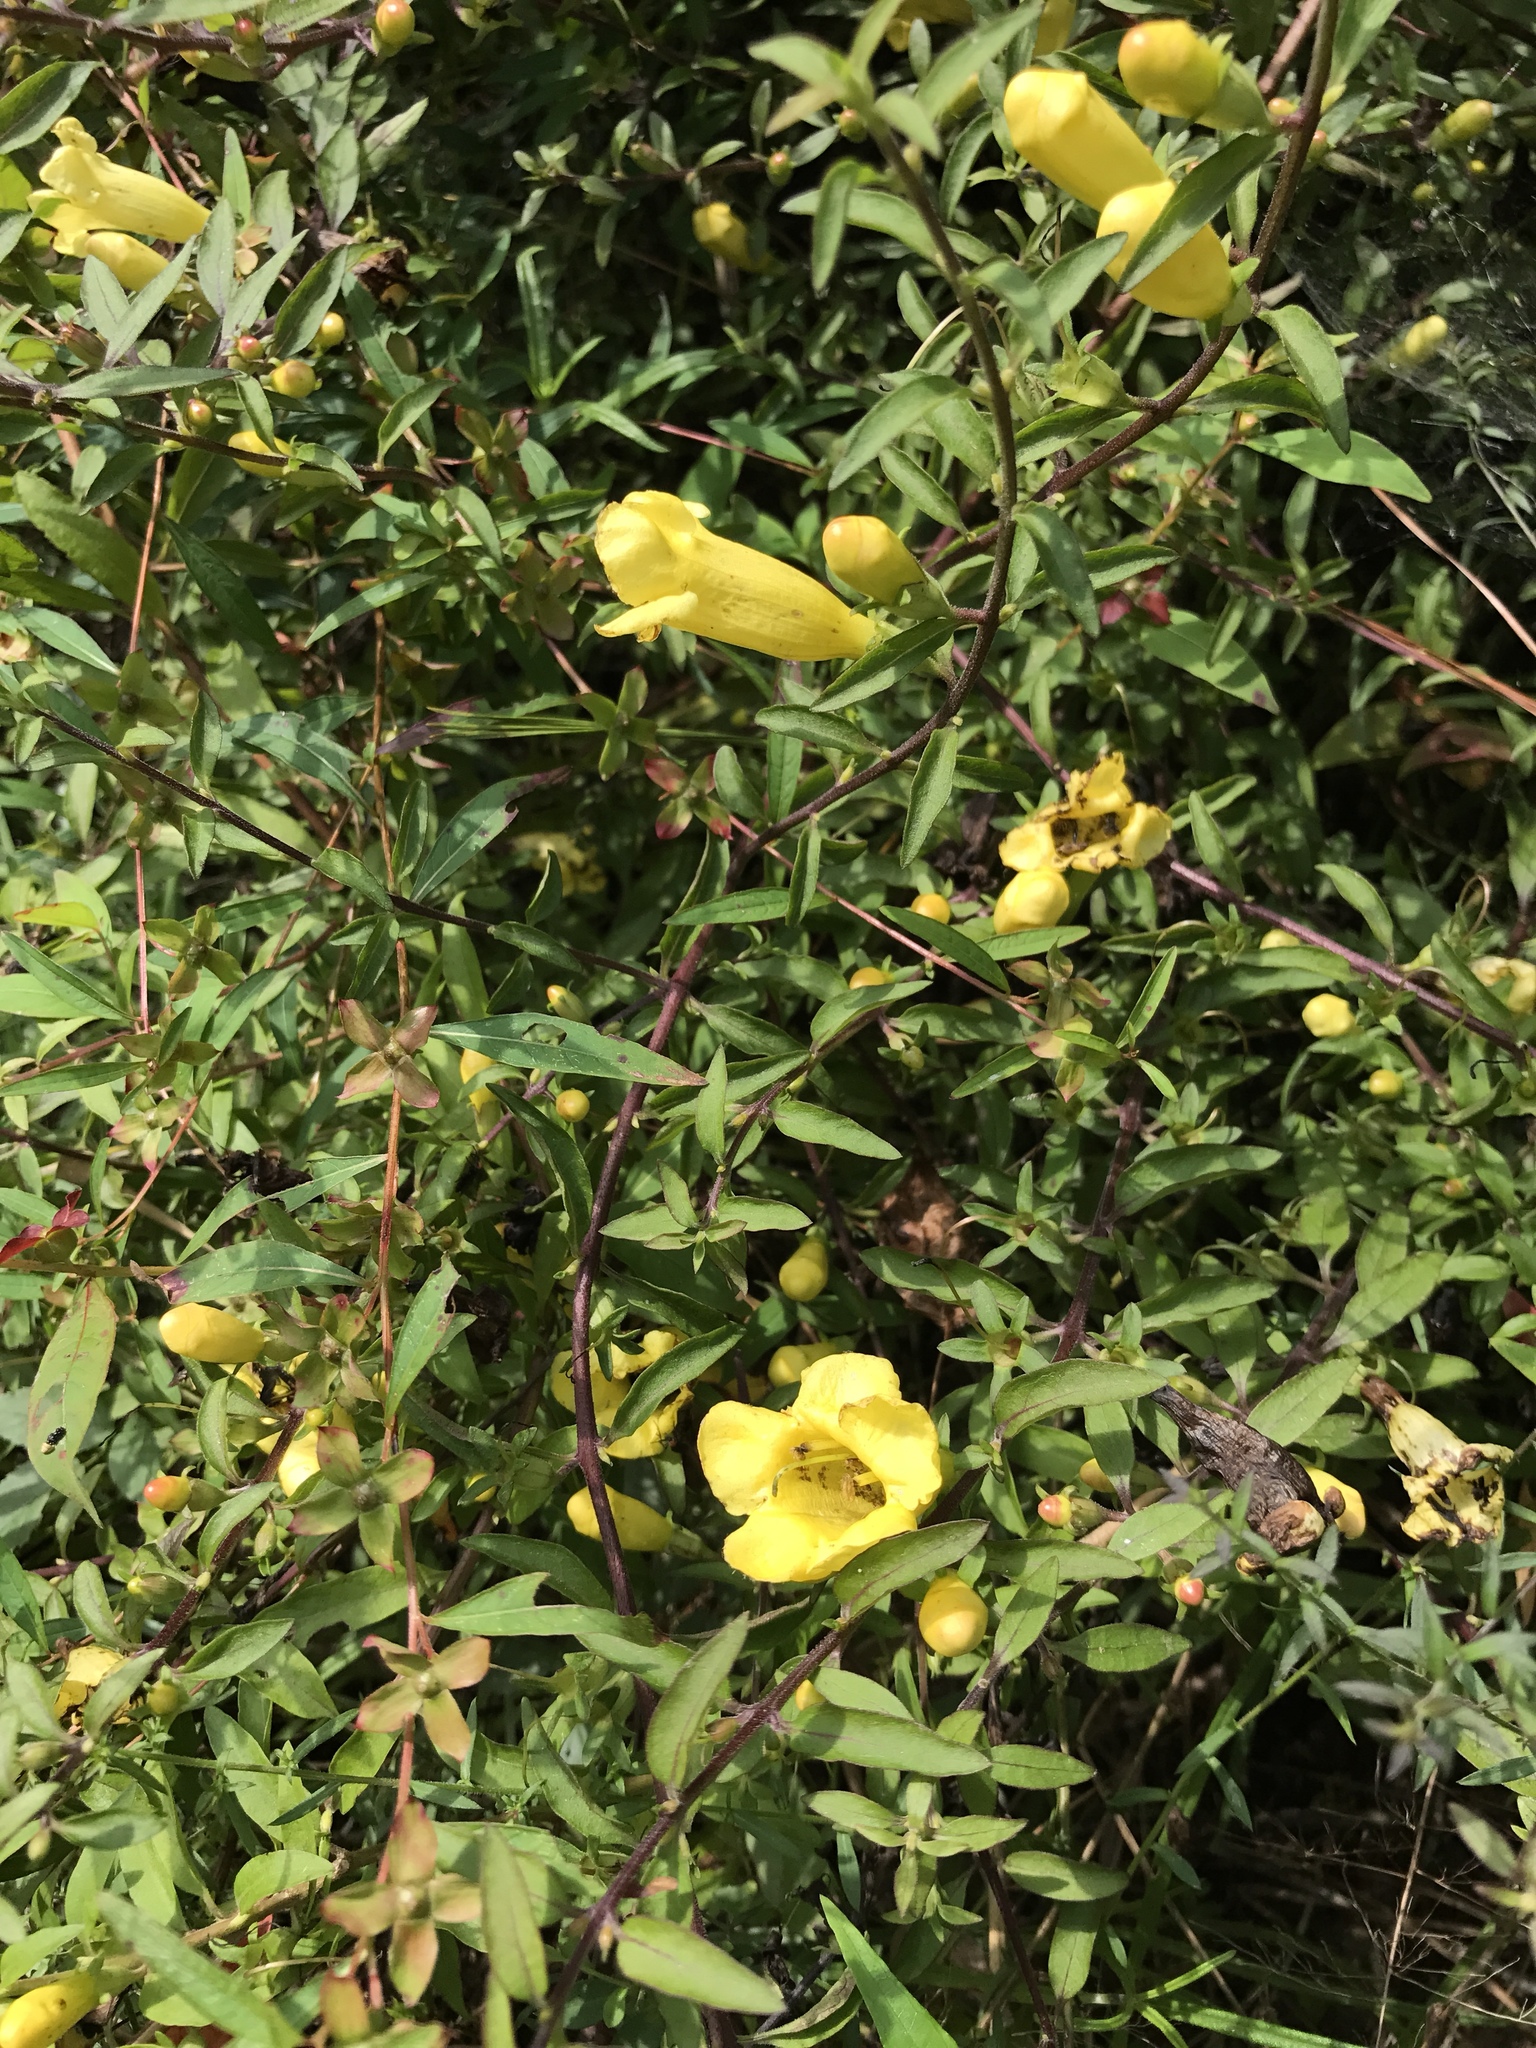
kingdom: Plantae
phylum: Tracheophyta
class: Magnoliopsida
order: Lamiales
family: Orobanchaceae
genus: Aureolaria
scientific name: Aureolaria grandiflora
